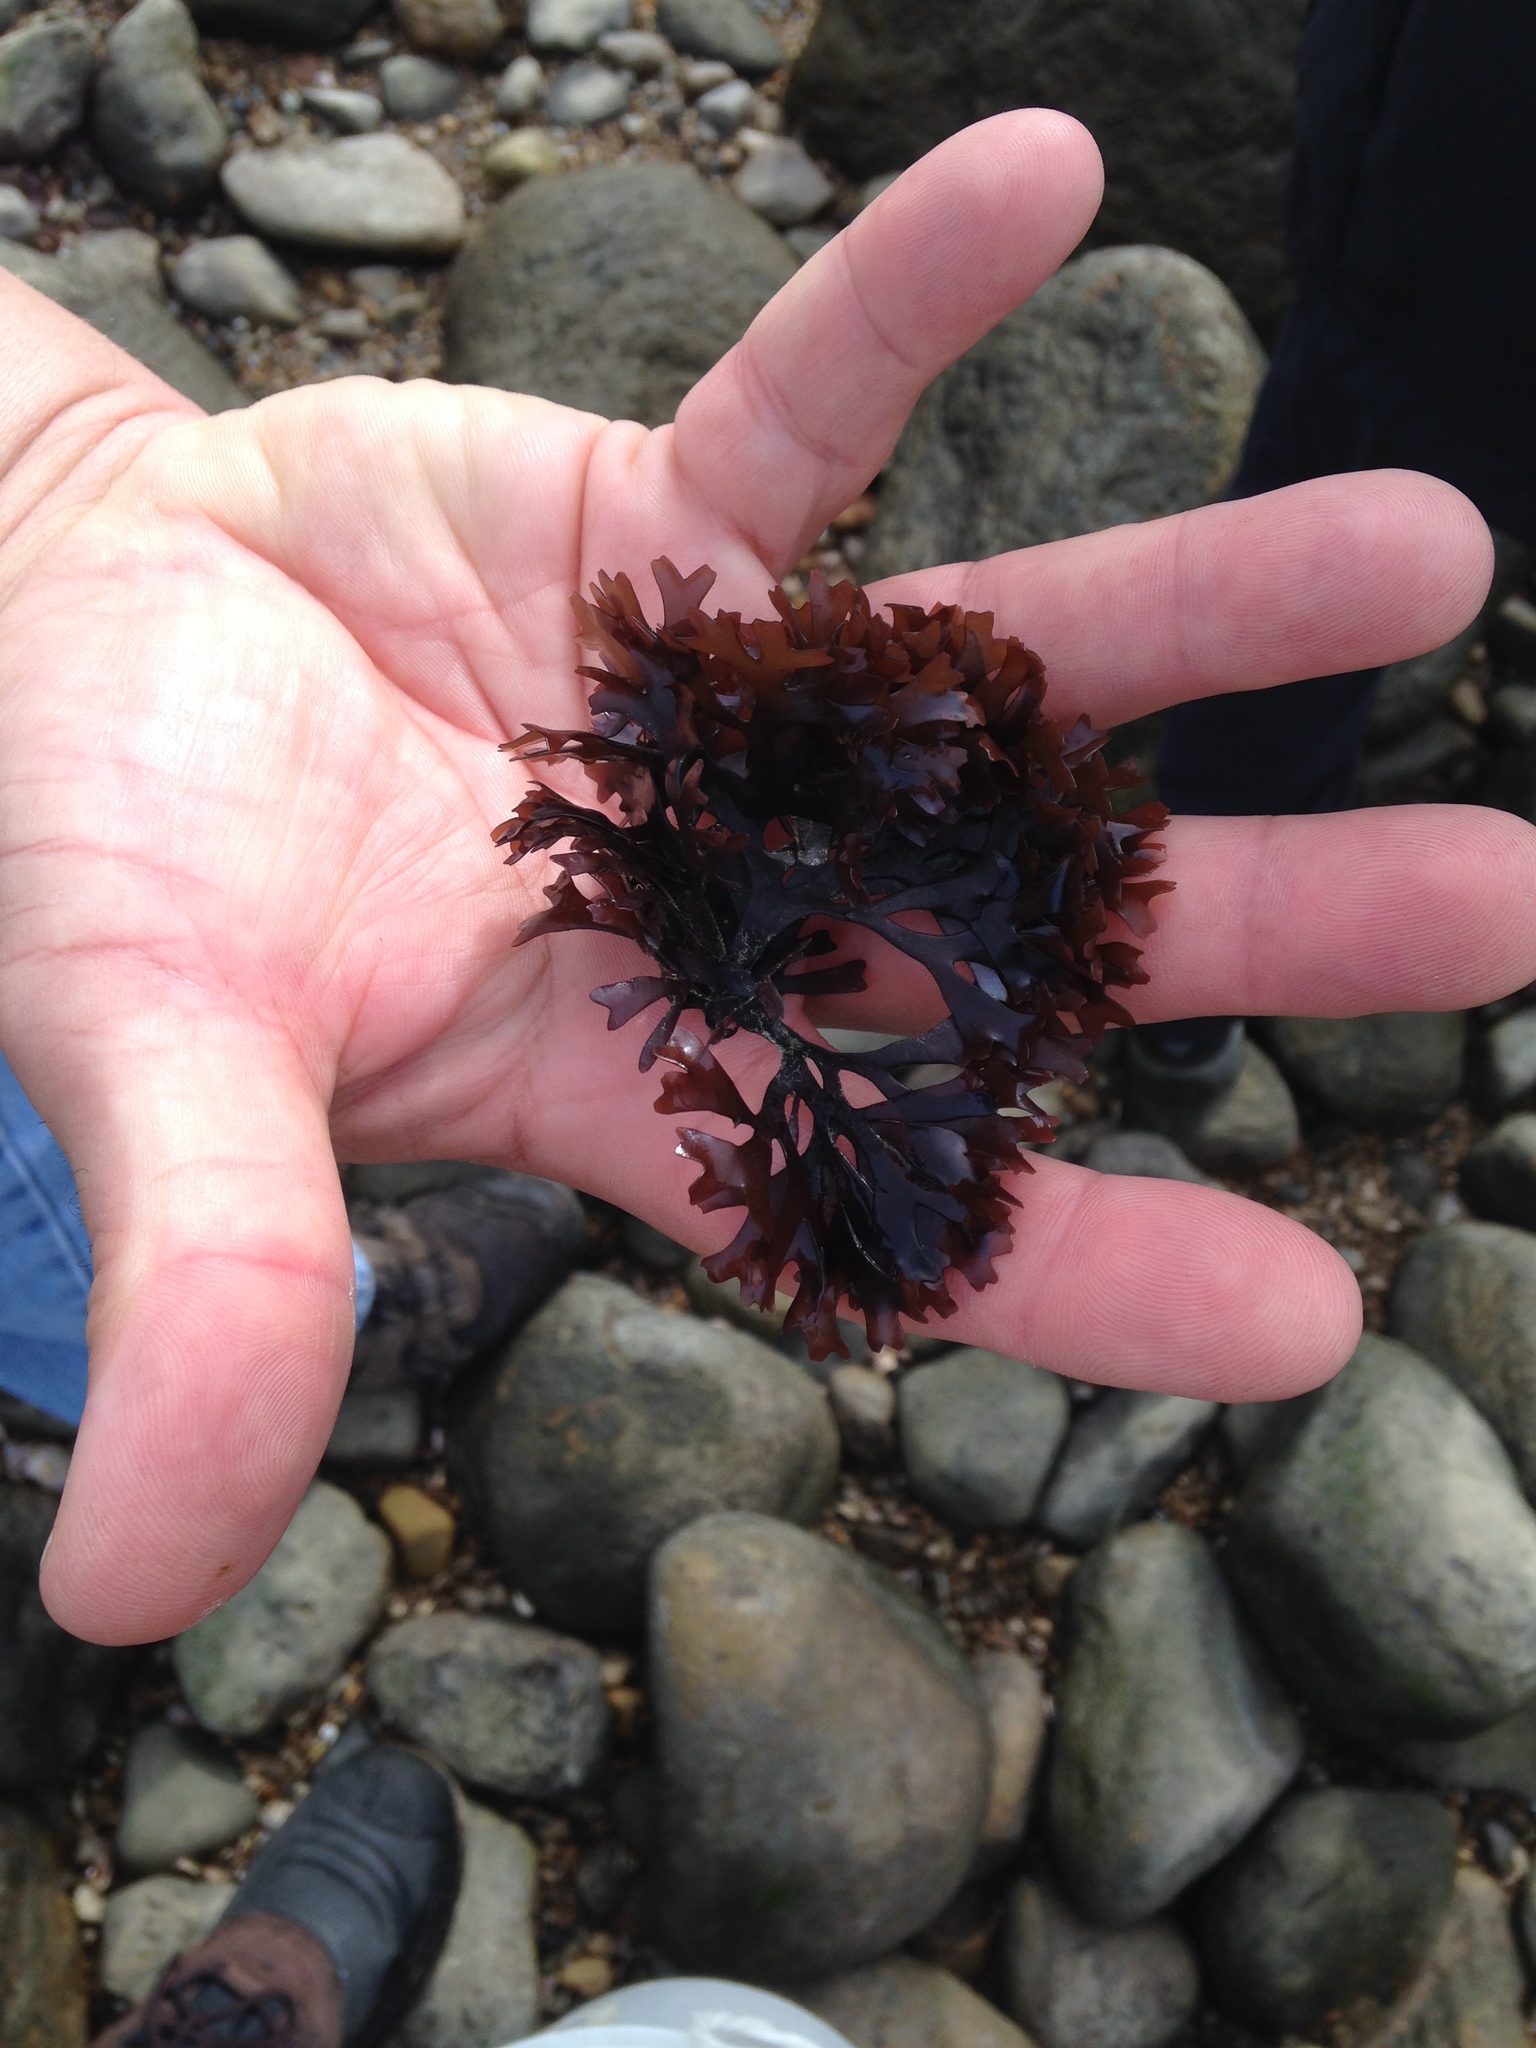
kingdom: Plantae
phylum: Rhodophyta
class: Florideophyceae
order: Gigartinales
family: Gigartinaceae
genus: Chondrus
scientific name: Chondrus crispus
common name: Carrageen
